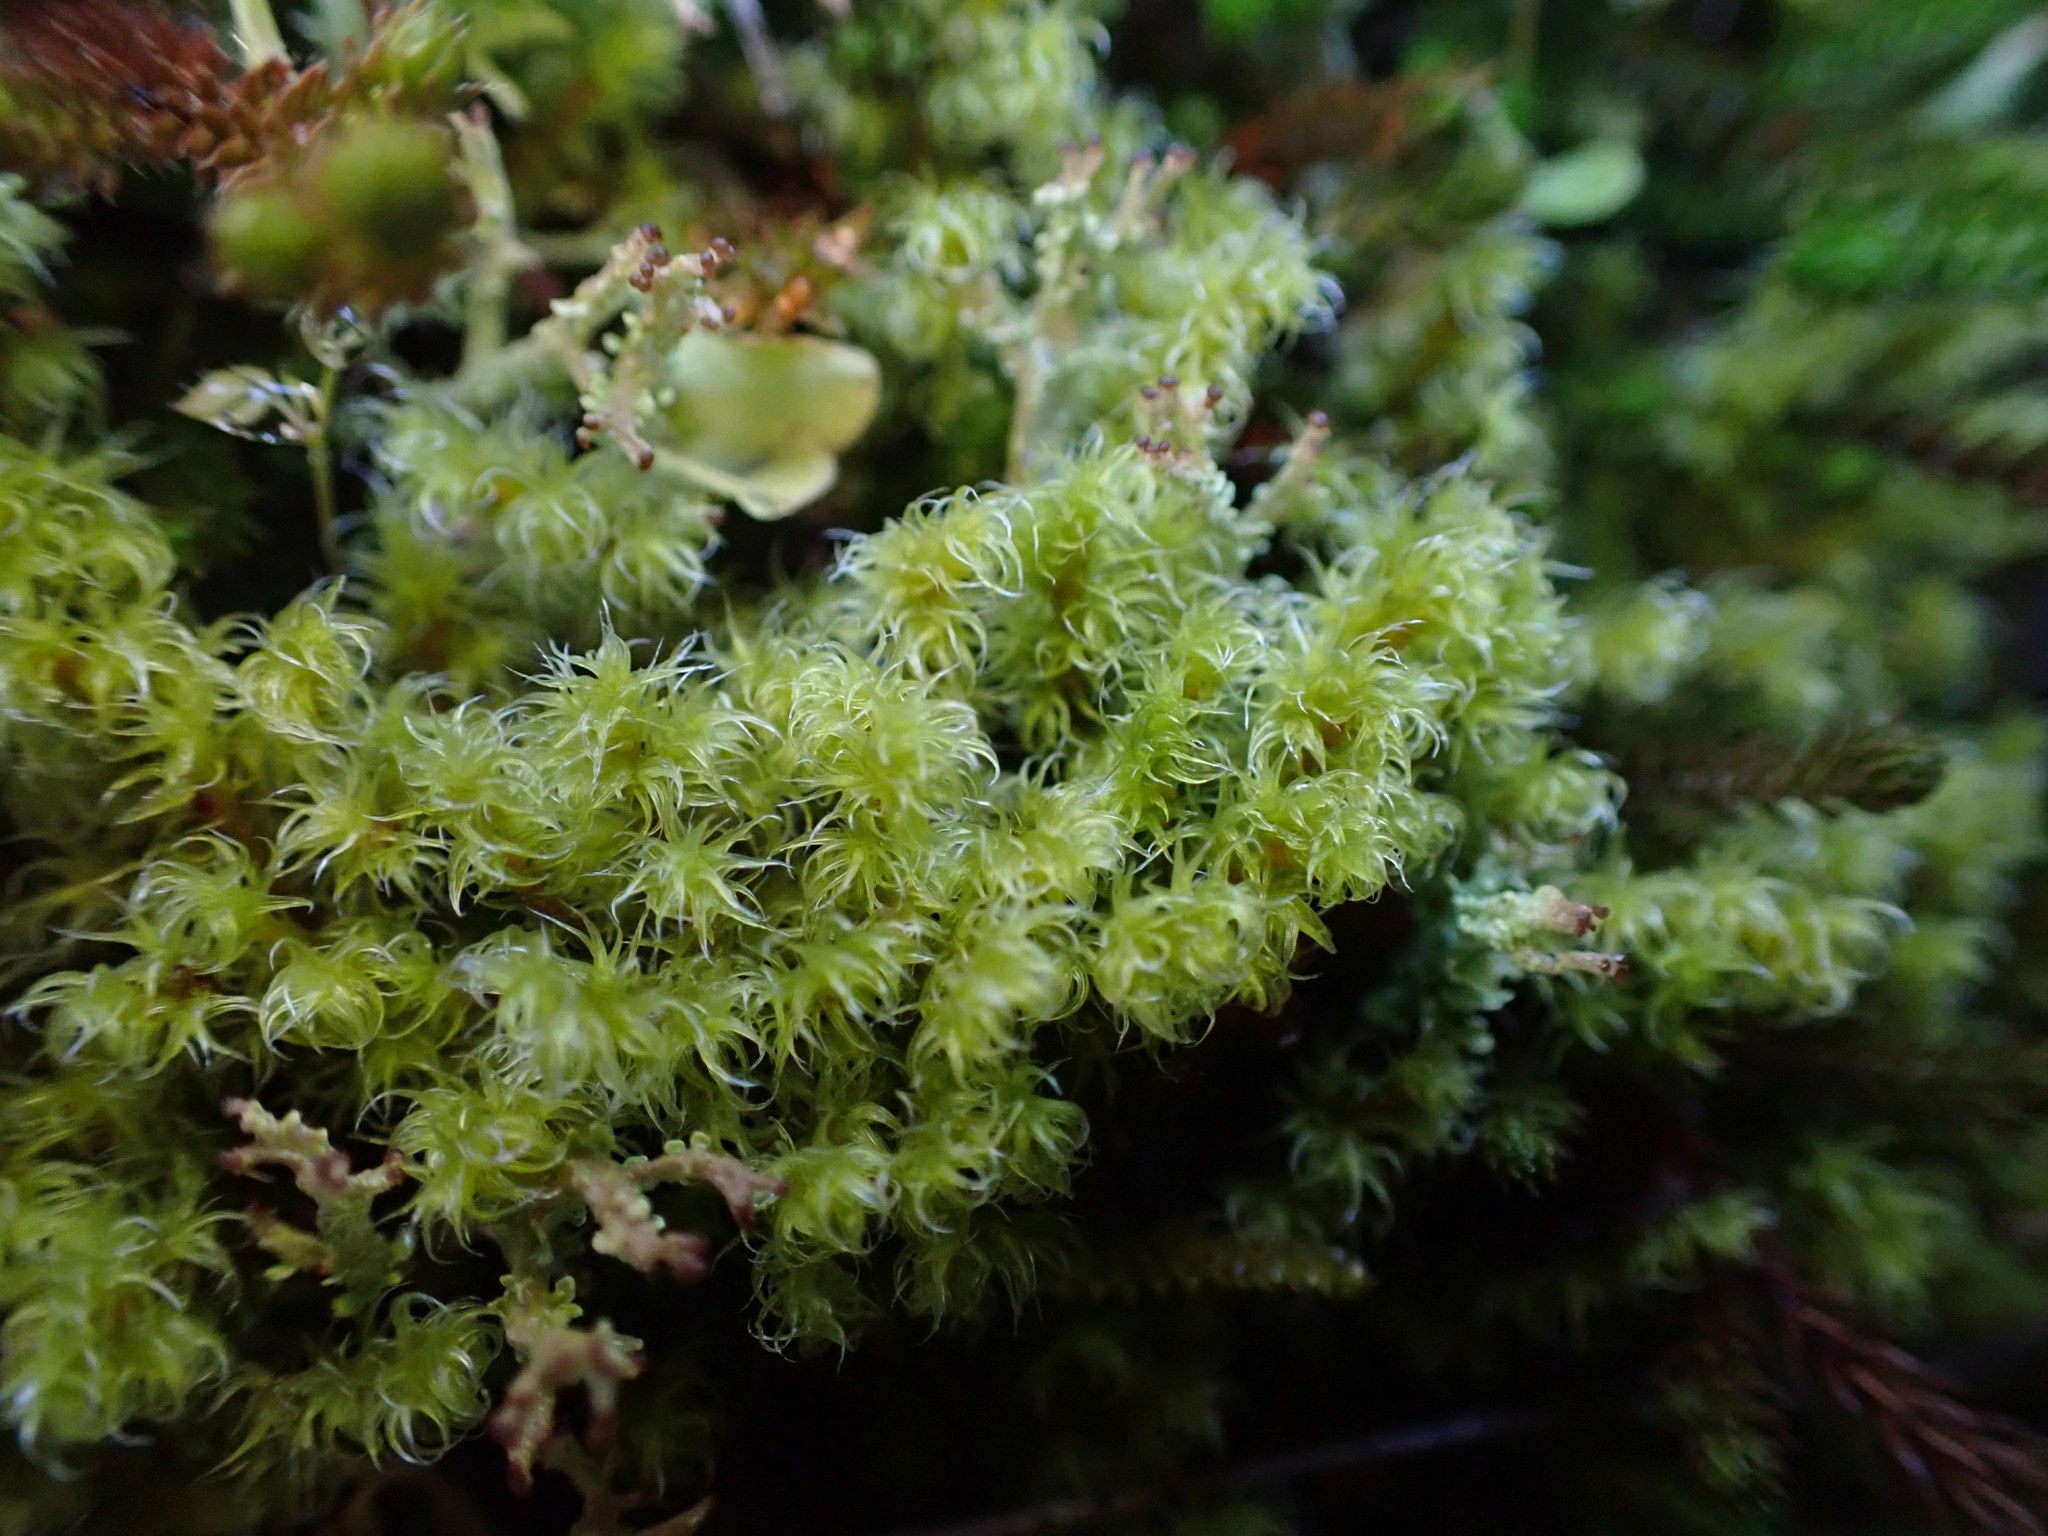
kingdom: Plantae
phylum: Bryophyta
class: Bryopsida
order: Grimmiales
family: Grimmiaceae
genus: Niphotrichum
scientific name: Niphotrichum elongatum
